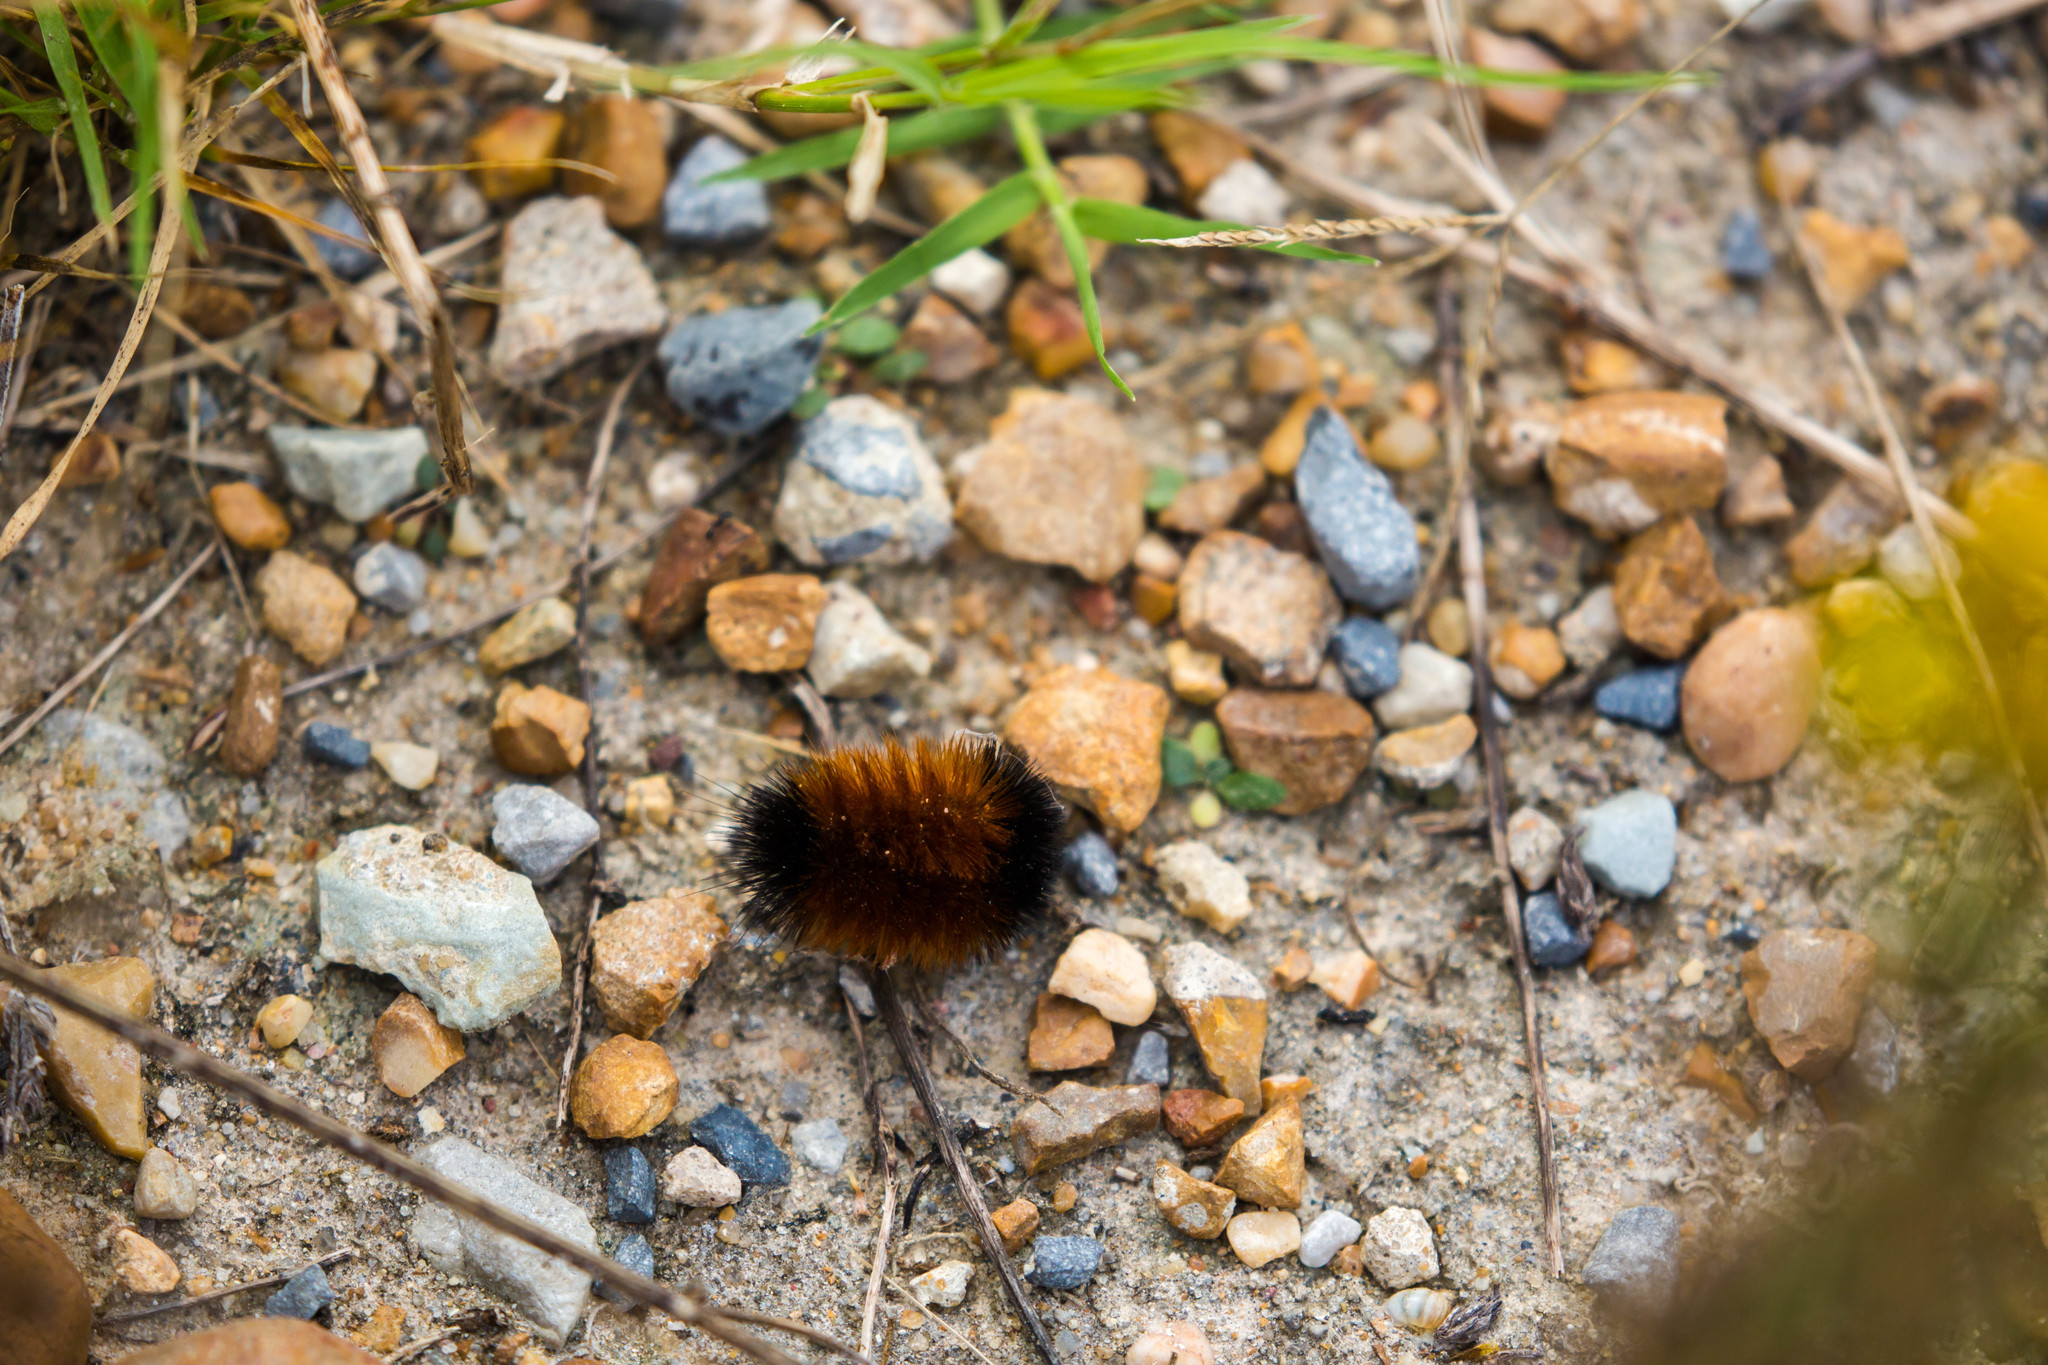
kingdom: Animalia
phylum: Arthropoda
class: Insecta
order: Lepidoptera
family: Erebidae
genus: Pyrrharctia
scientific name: Pyrrharctia isabella
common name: Isabella tiger moth
